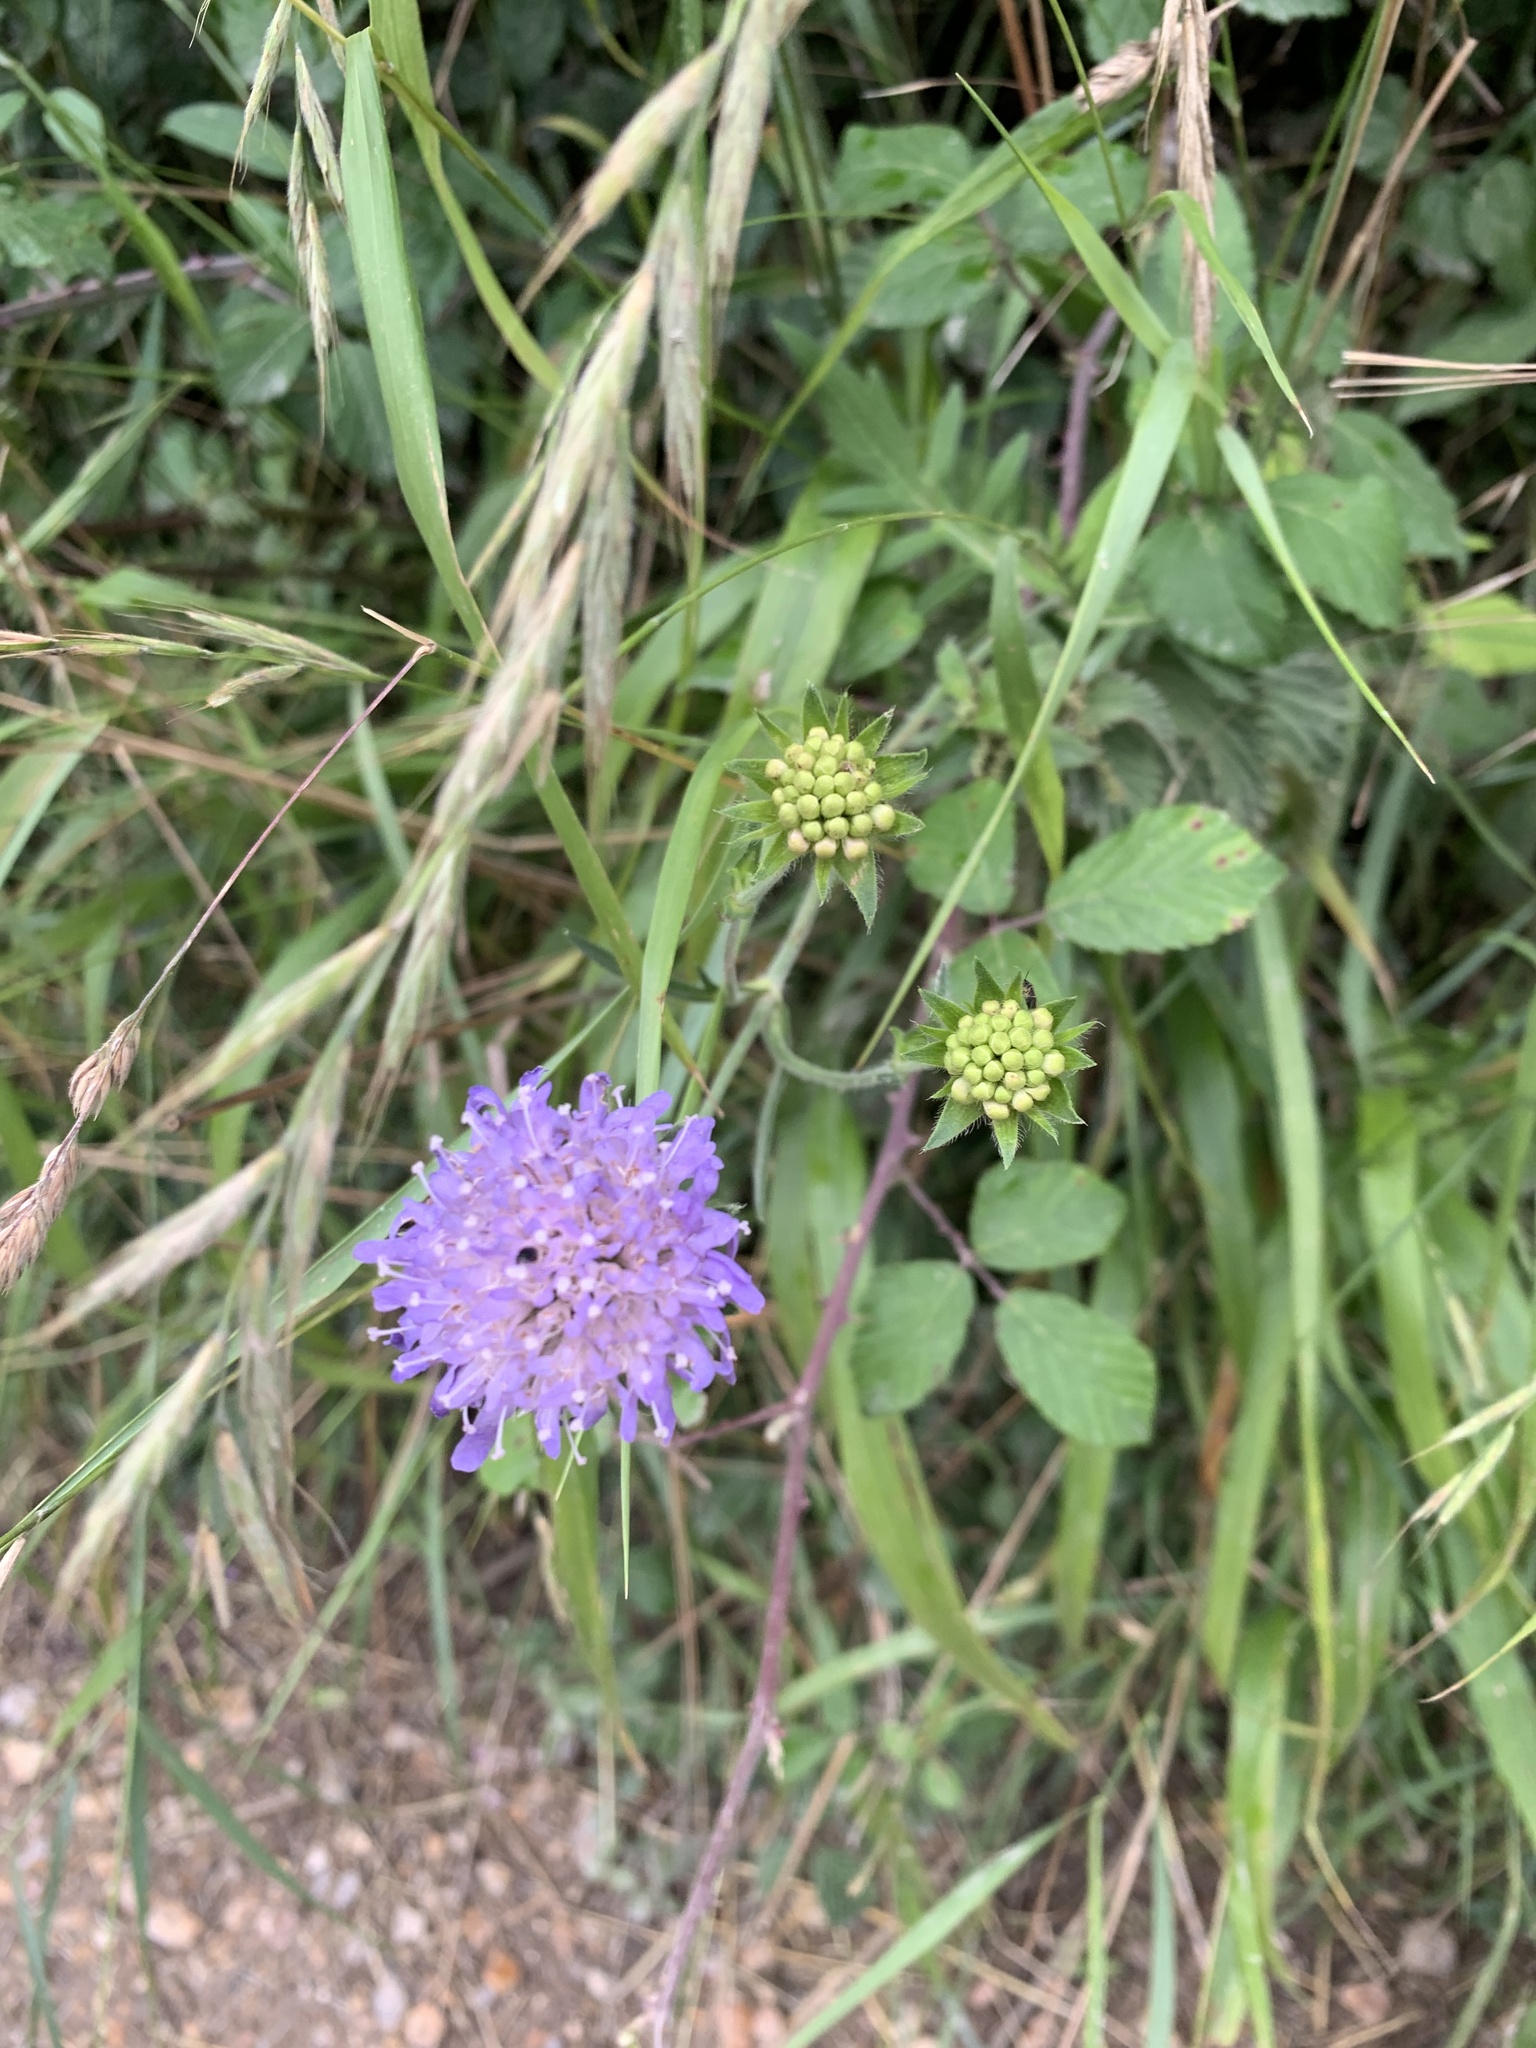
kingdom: Plantae
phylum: Tracheophyta
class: Magnoliopsida
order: Dipsacales
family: Caprifoliaceae
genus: Scabiosa
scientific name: Scabiosa columbaria
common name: Small scabious
